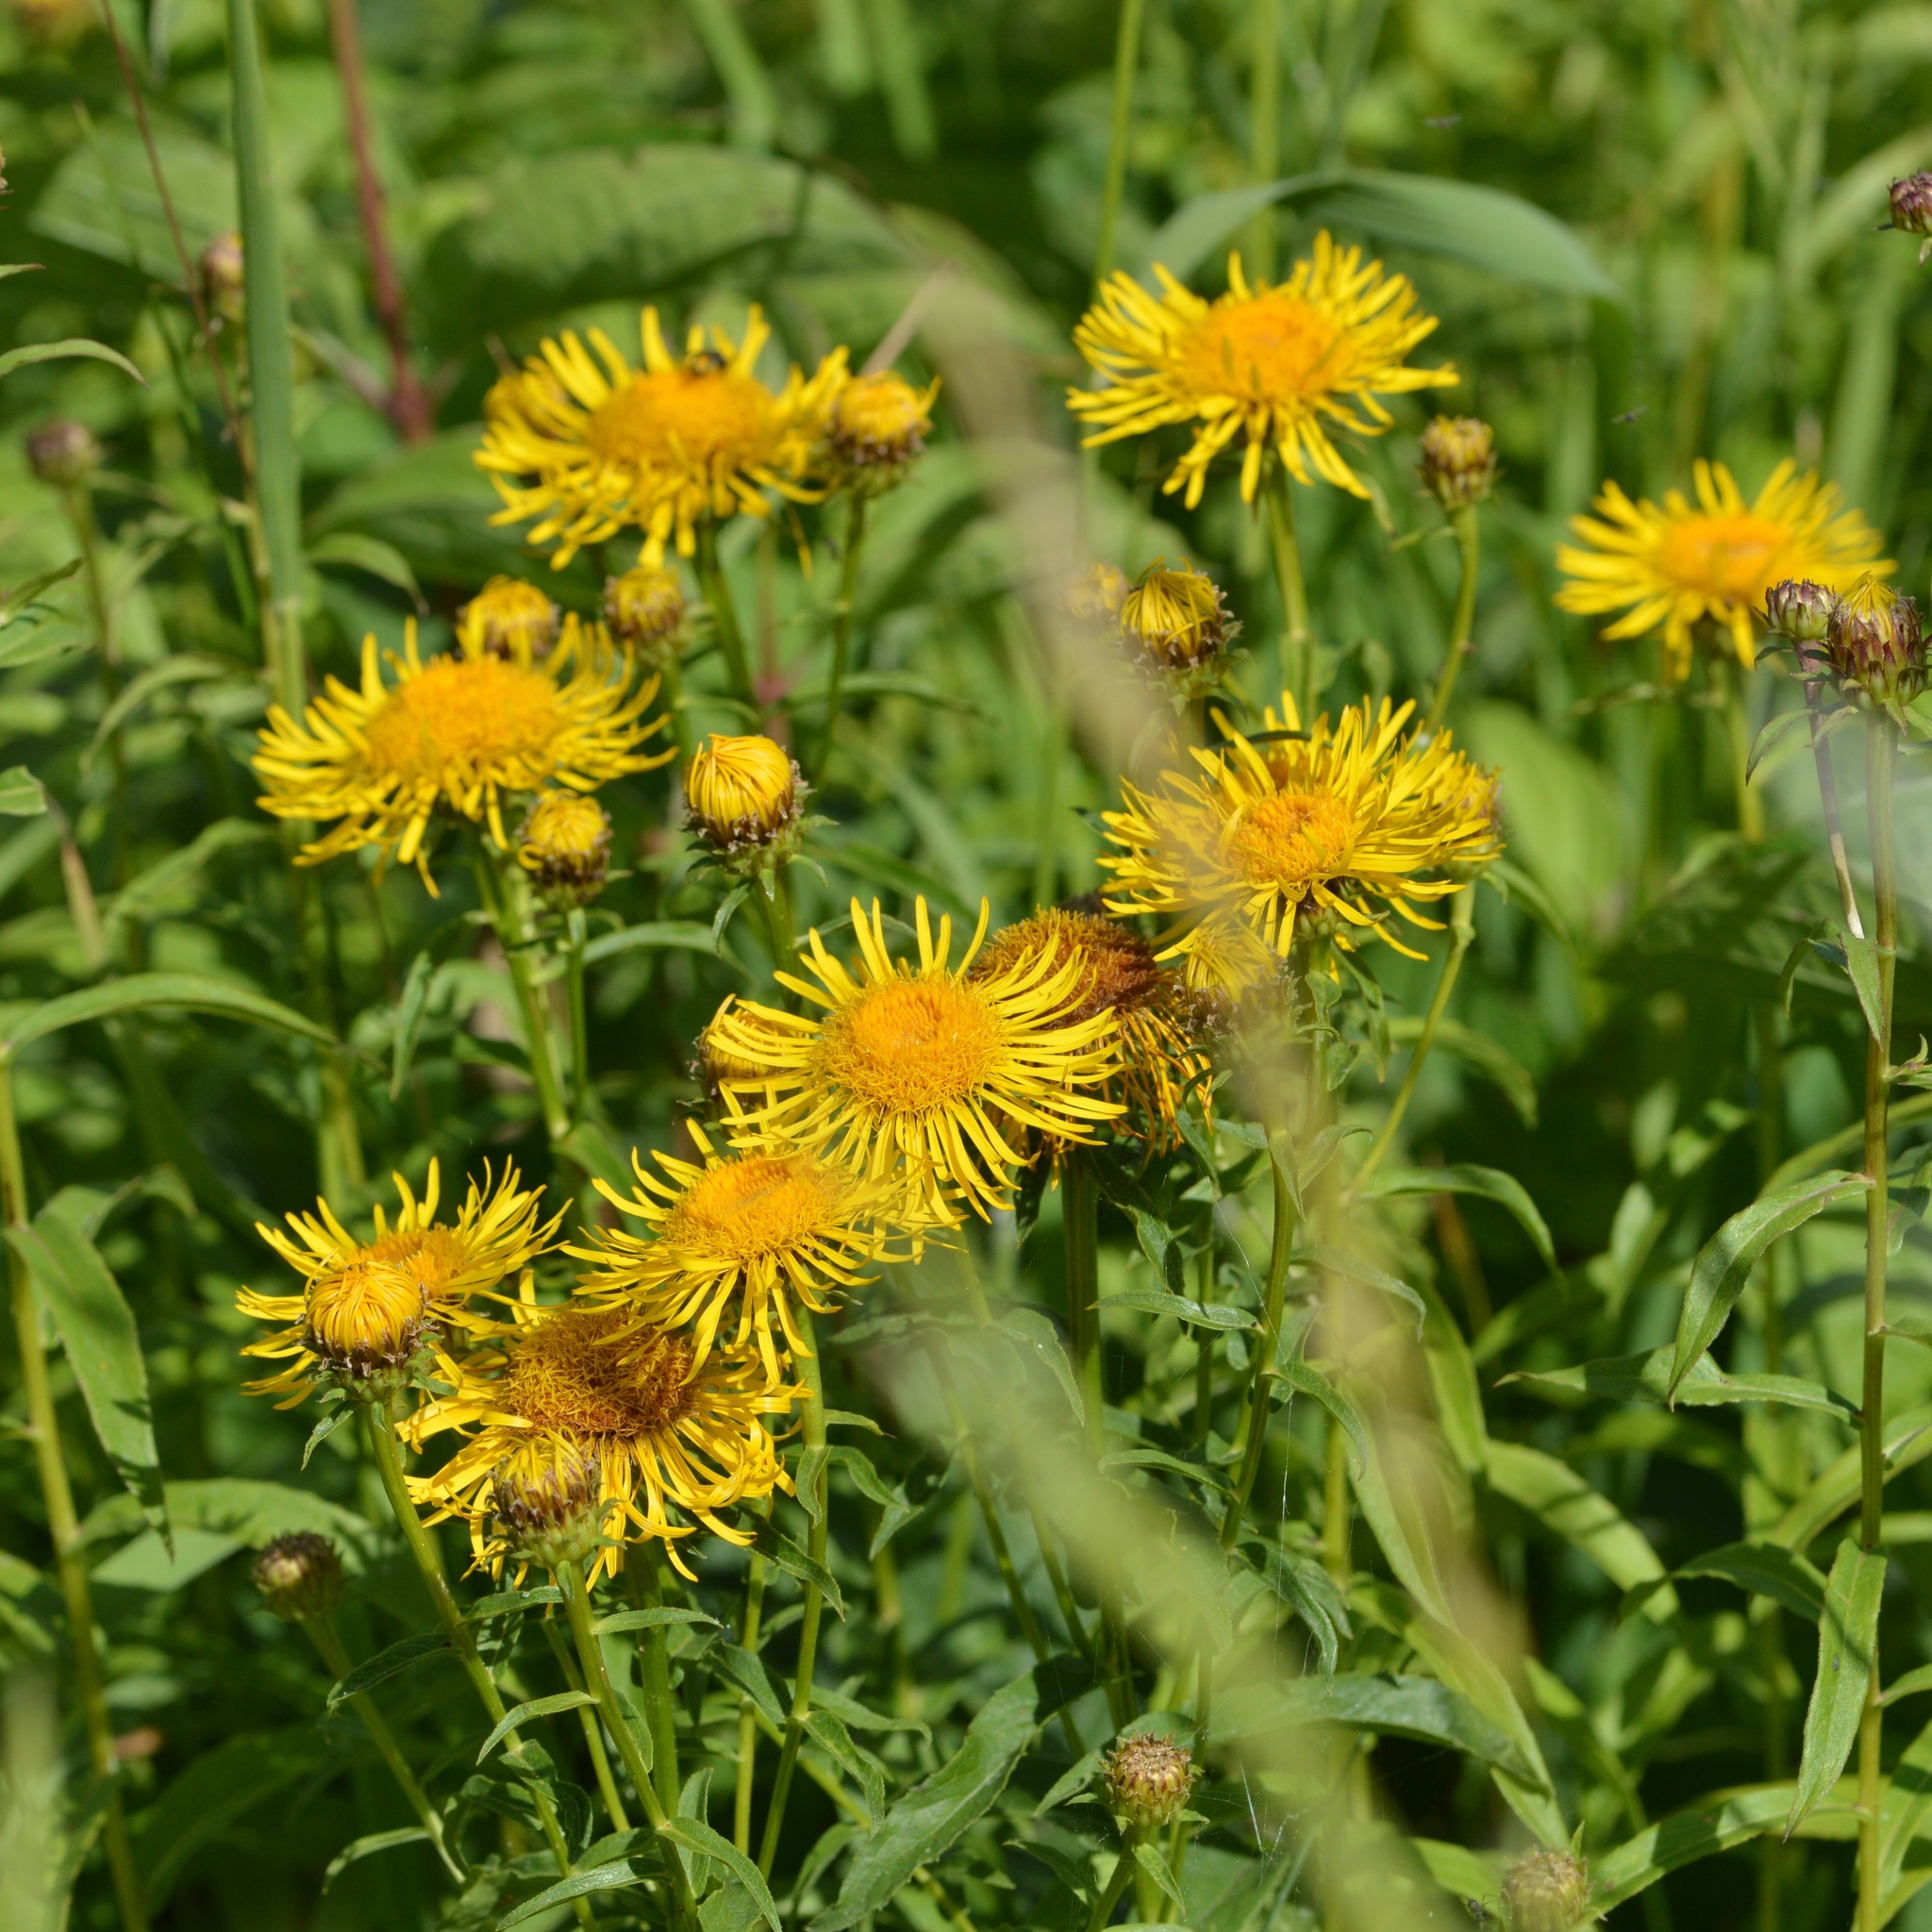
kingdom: Plantae
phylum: Tracheophyta
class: Magnoliopsida
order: Asterales
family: Asteraceae
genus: Pentanema
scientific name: Pentanema salicinum
